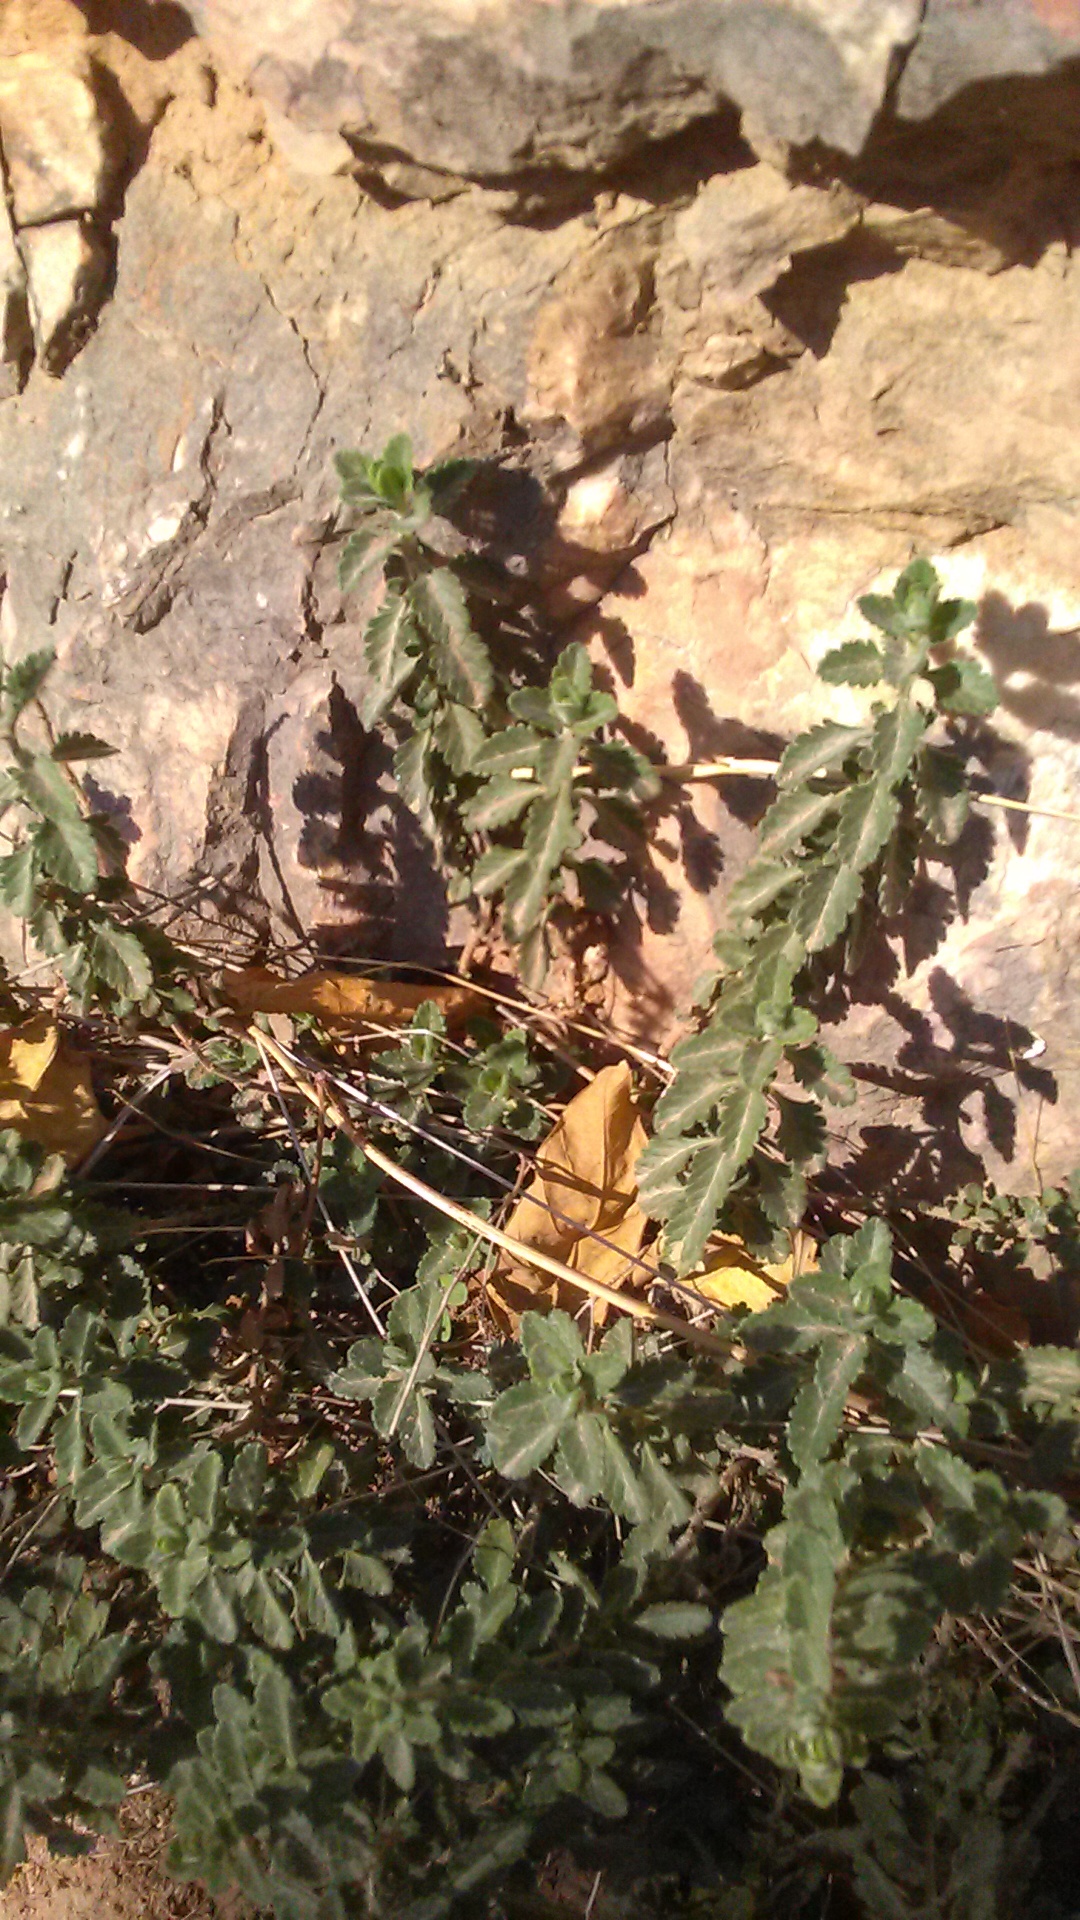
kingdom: Plantae
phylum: Tracheophyta
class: Magnoliopsida
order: Lamiales
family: Lamiaceae
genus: Teucrium
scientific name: Teucrium chamaedrys
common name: Wall germander
